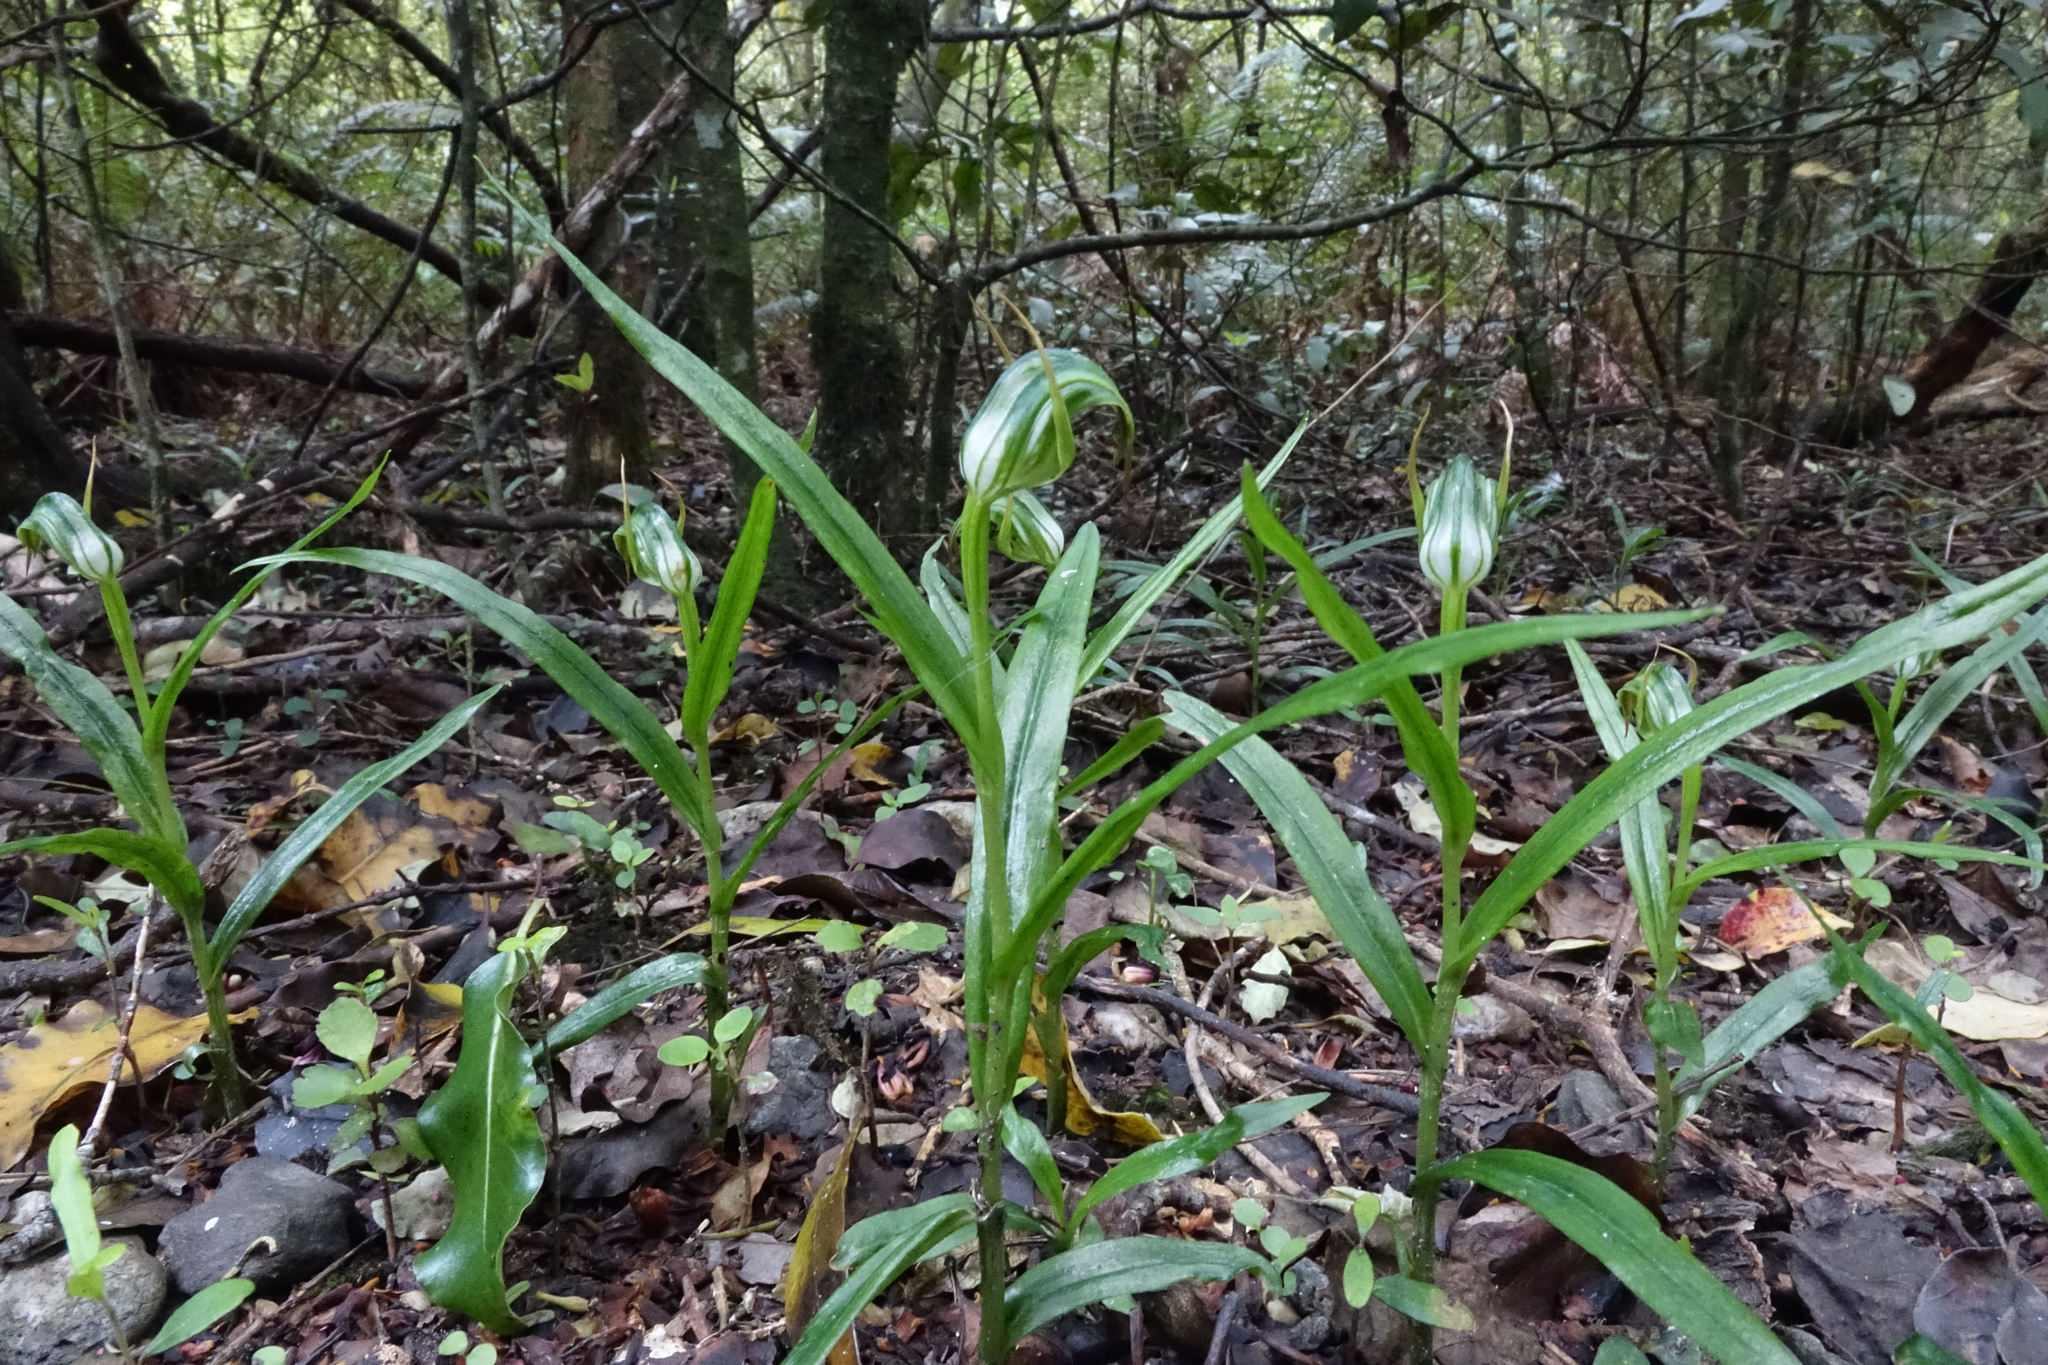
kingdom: Plantae
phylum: Tracheophyta
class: Liliopsida
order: Asparagales
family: Orchidaceae
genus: Pterostylis
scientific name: Pterostylis graminea
